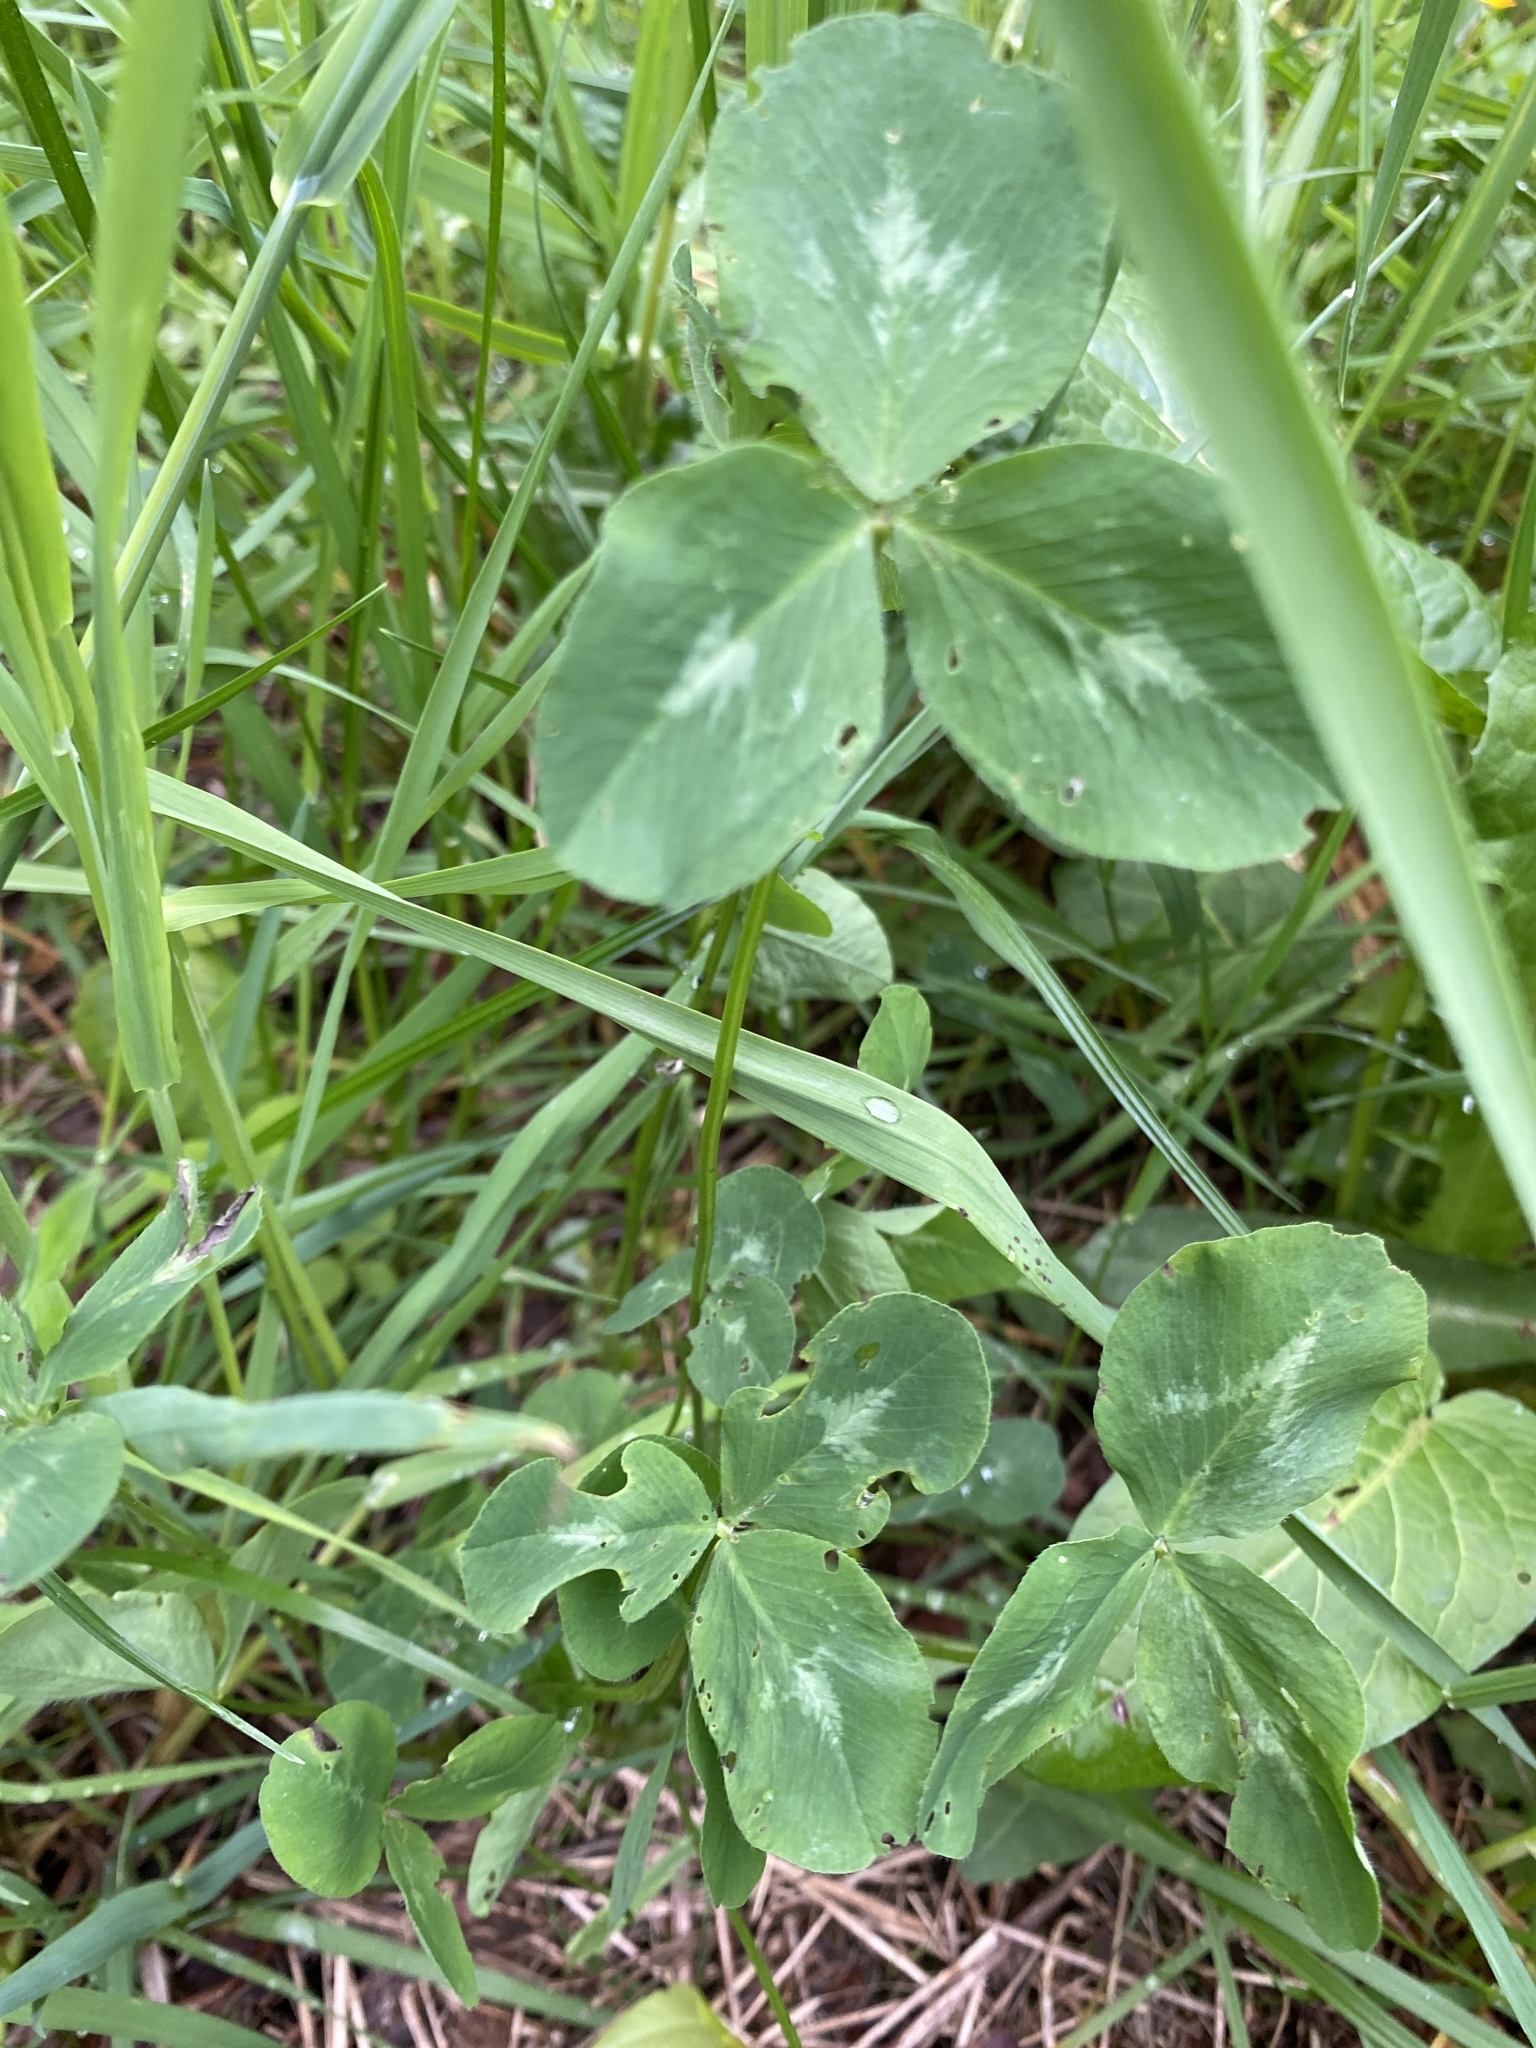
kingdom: Plantae
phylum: Tracheophyta
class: Magnoliopsida
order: Fabales
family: Fabaceae
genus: Trifolium
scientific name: Trifolium pratense
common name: Red clover
